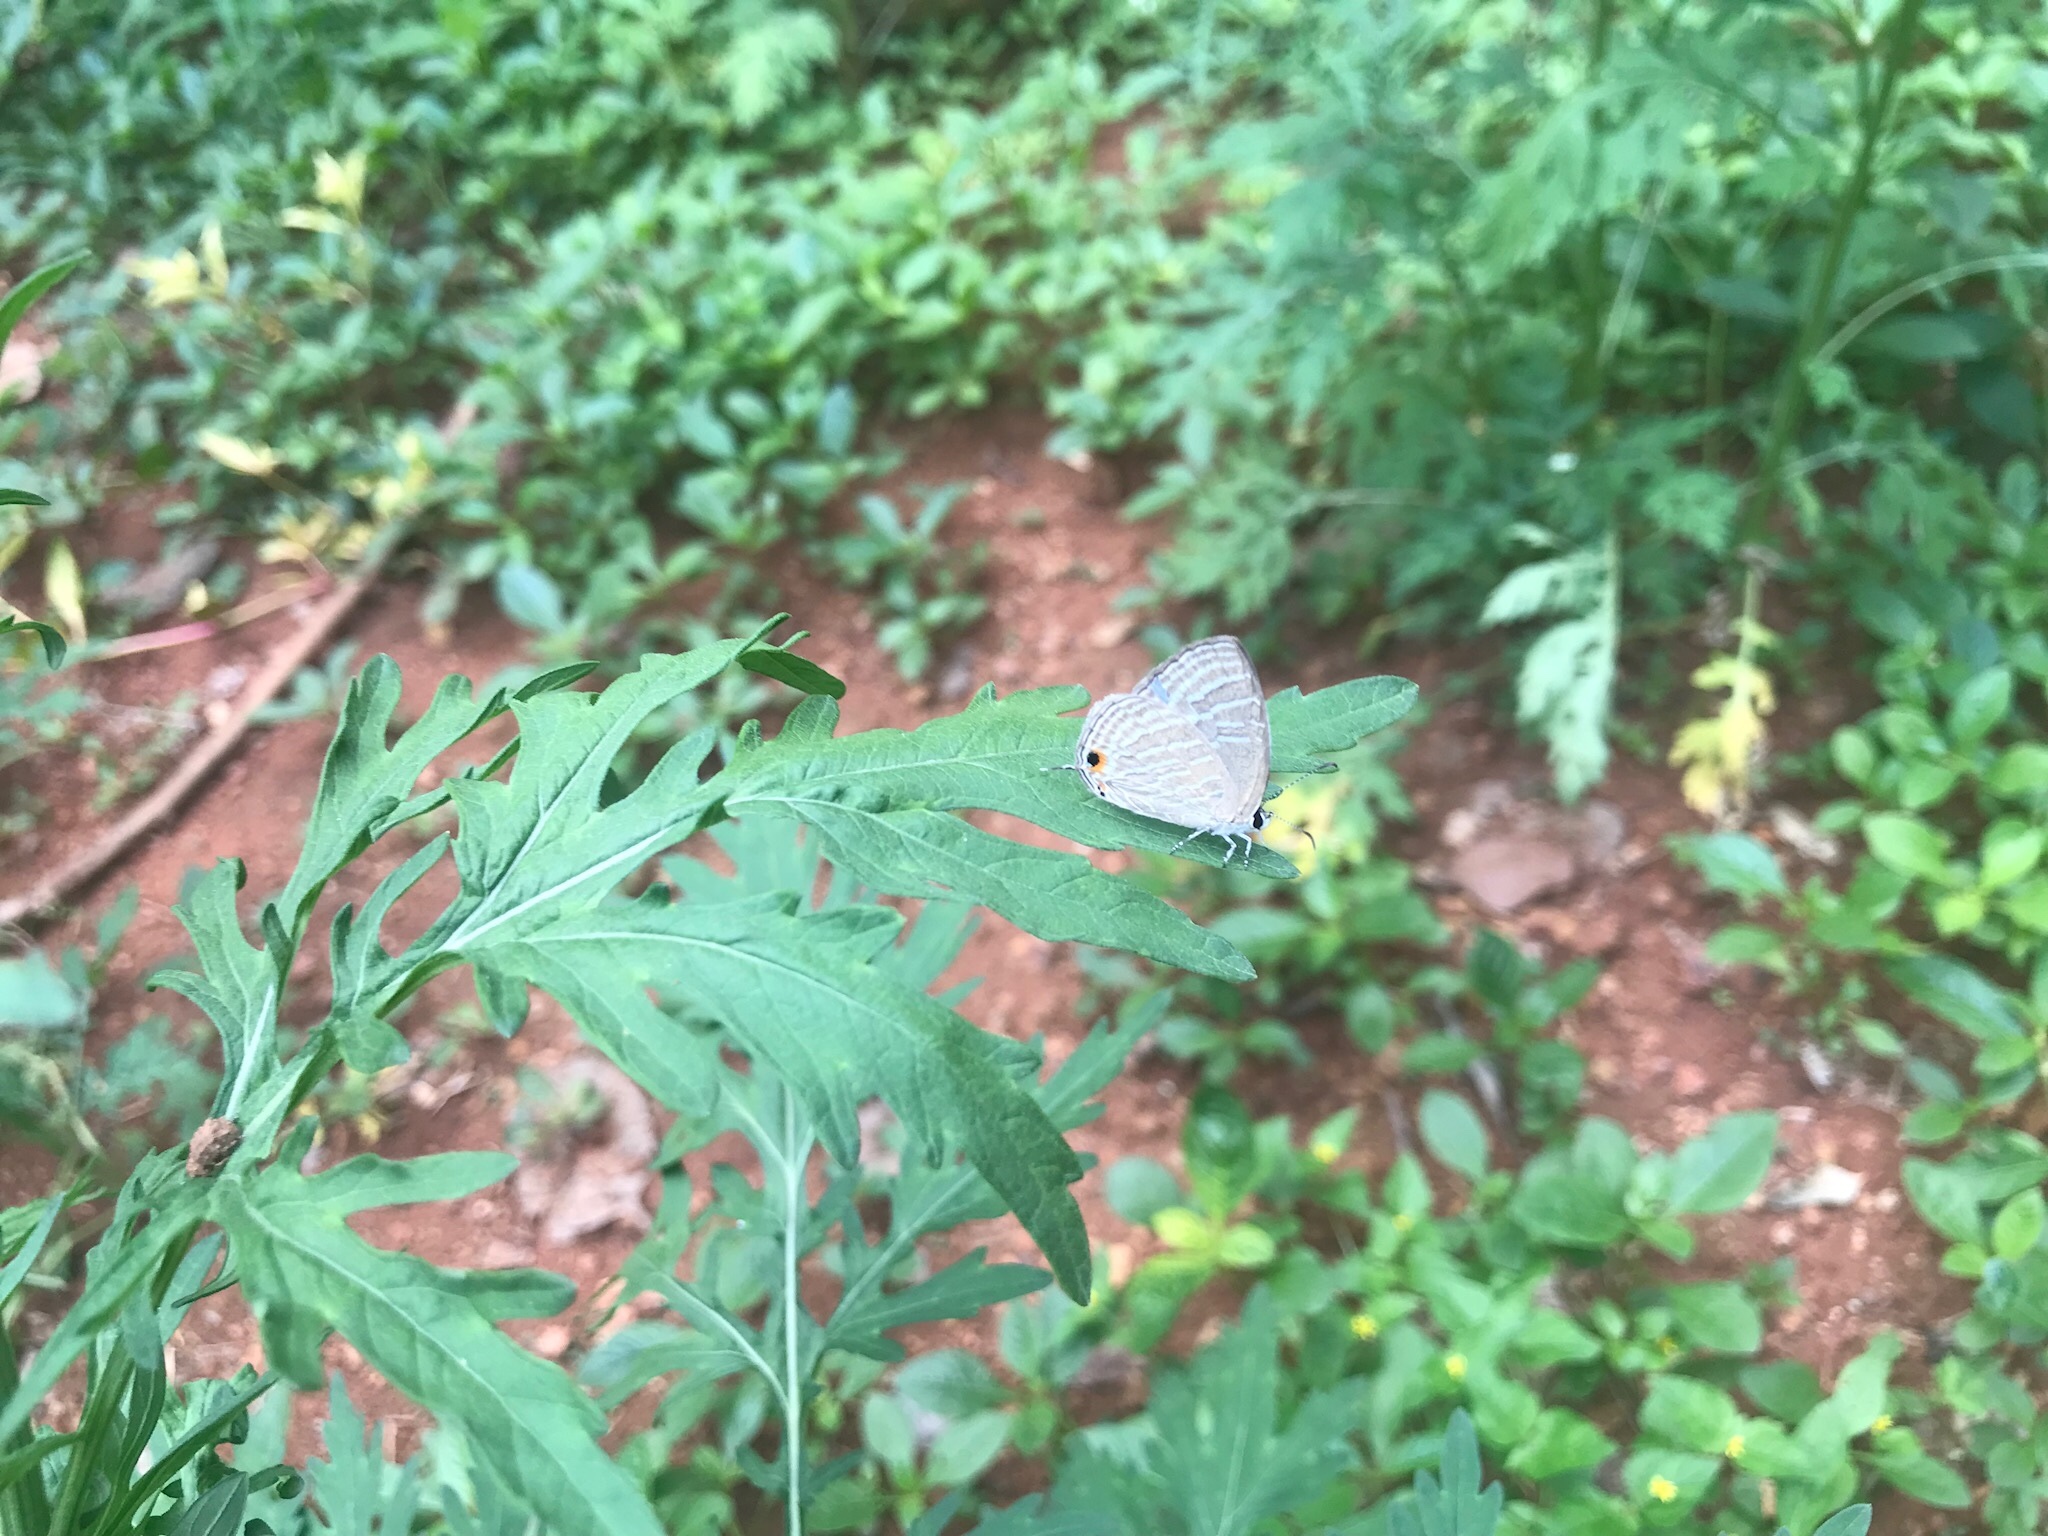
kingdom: Animalia
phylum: Arthropoda
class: Insecta
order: Lepidoptera
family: Lycaenidae
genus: Jamides
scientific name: Jamides celeno
